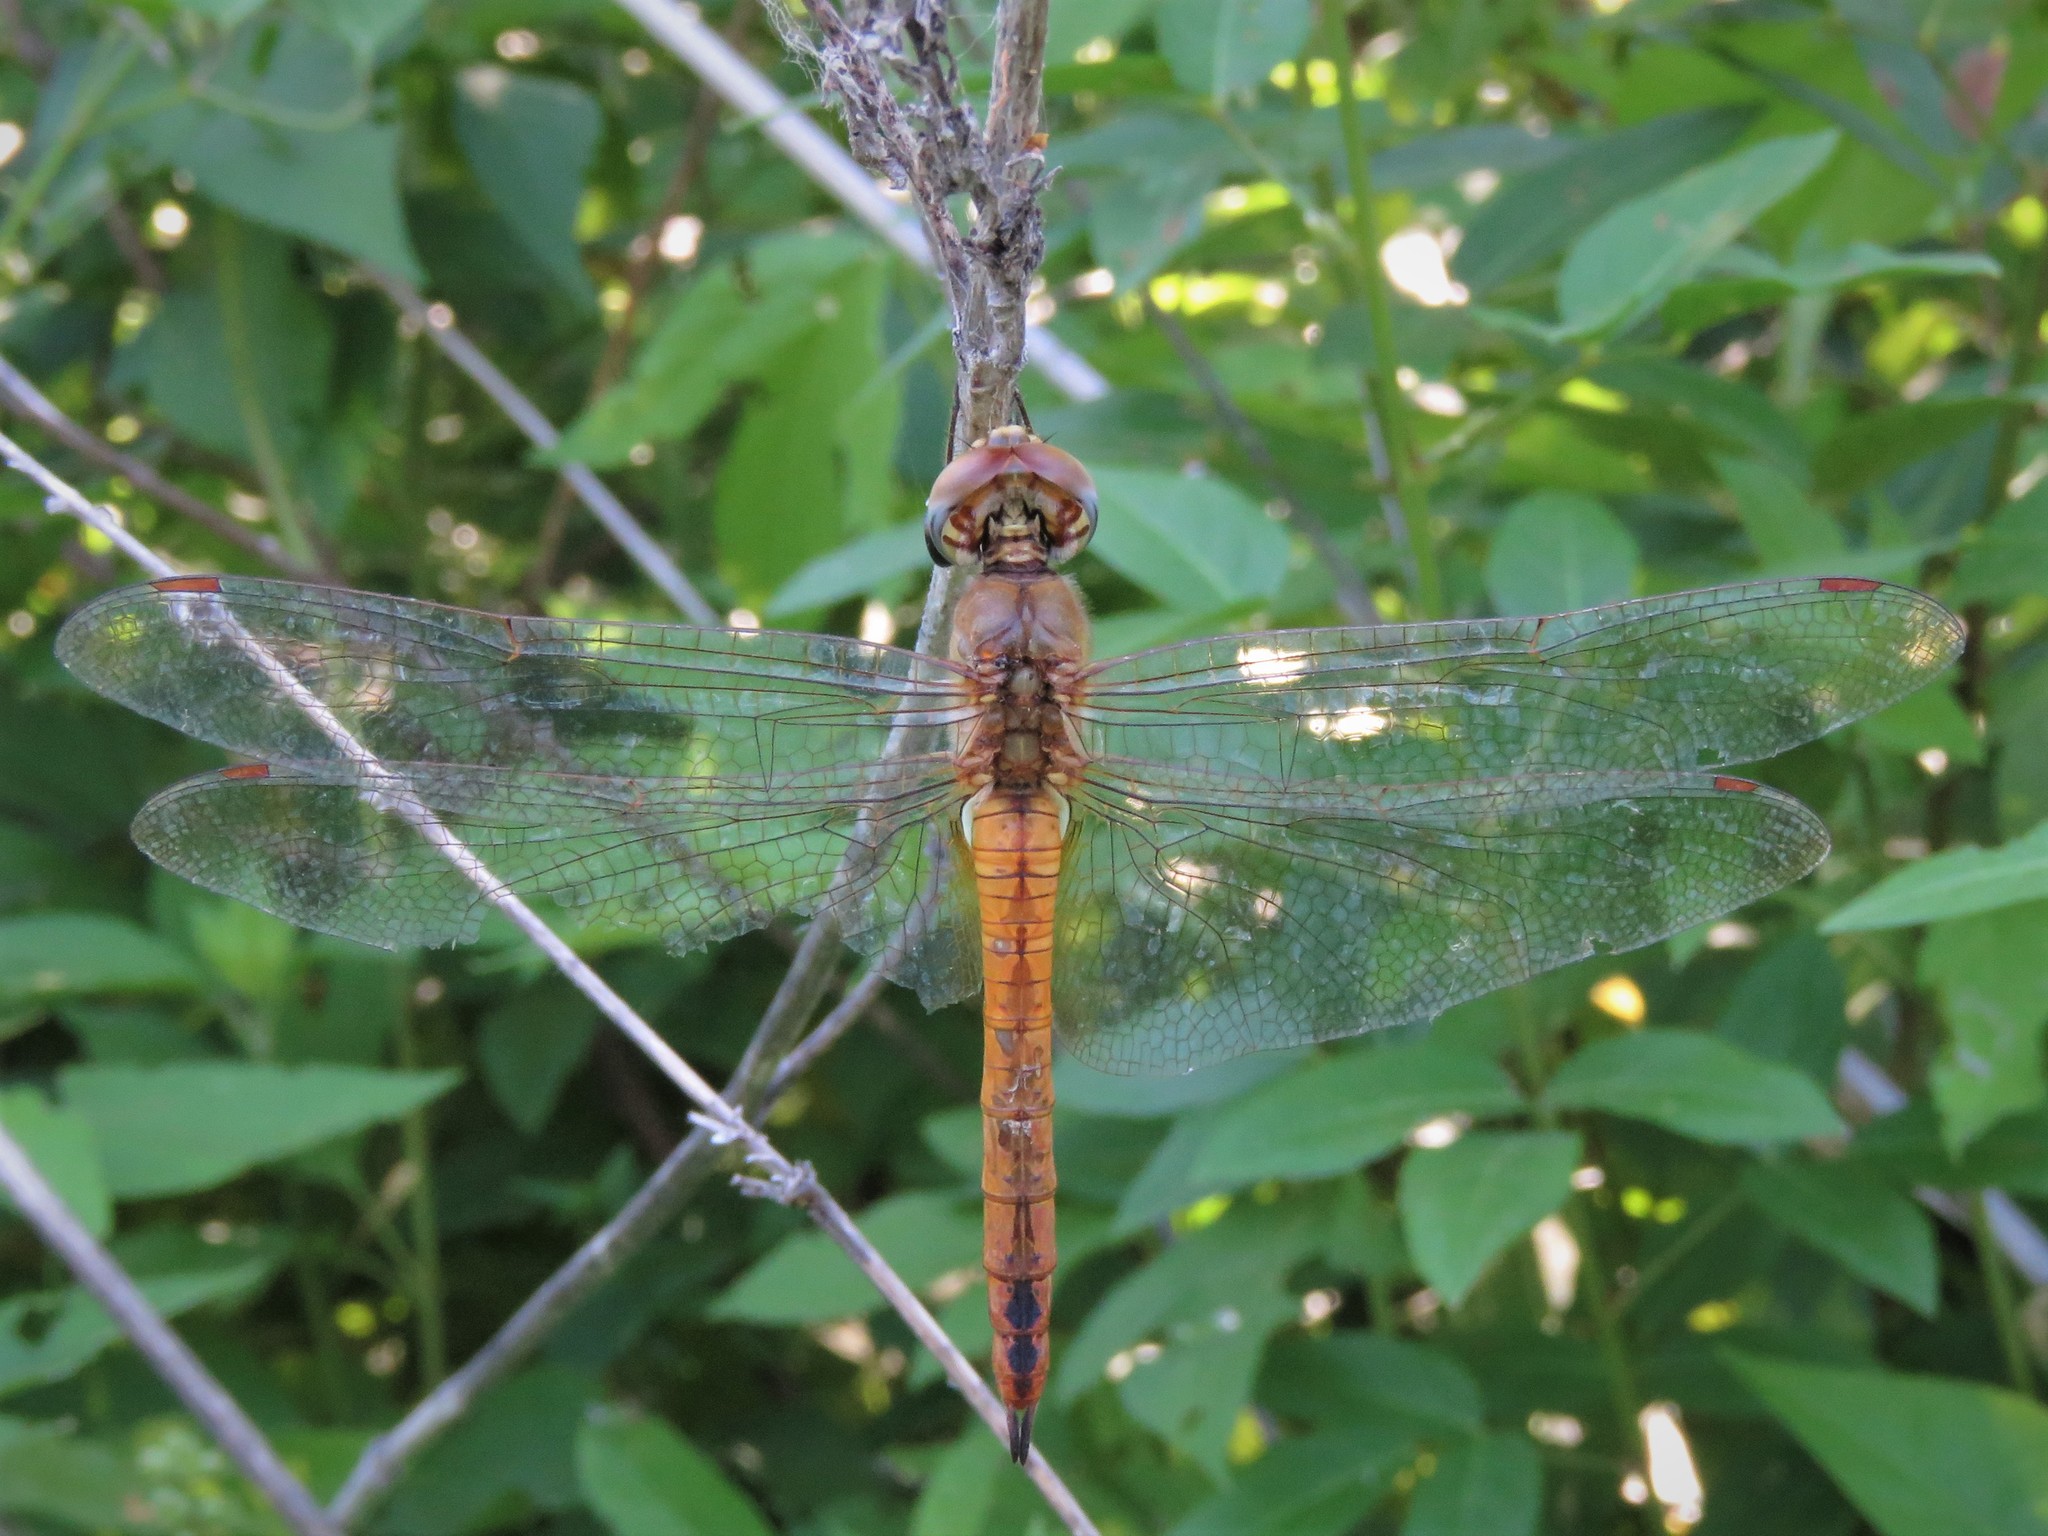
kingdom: Animalia
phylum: Arthropoda
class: Insecta
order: Odonata
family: Libellulidae
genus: Pantala
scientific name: Pantala flavescens
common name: Wandering glider
